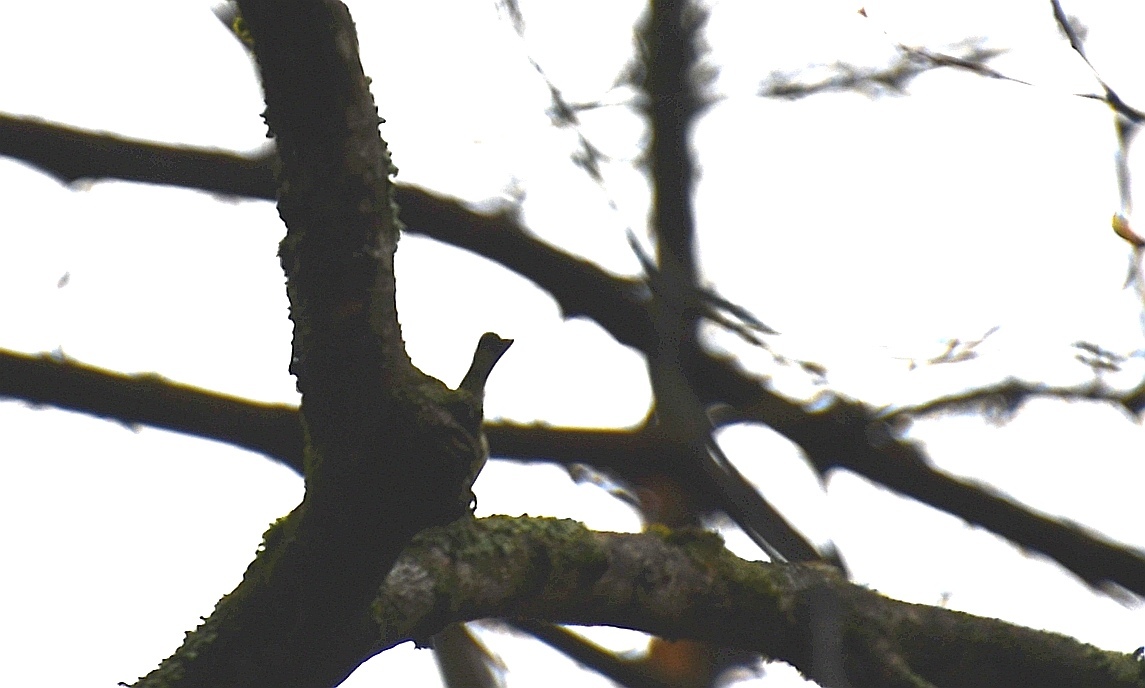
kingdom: Animalia
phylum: Chordata
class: Aves
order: Passeriformes
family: Parulidae
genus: Setophaga
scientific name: Setophaga coronata
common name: Myrtle warbler
